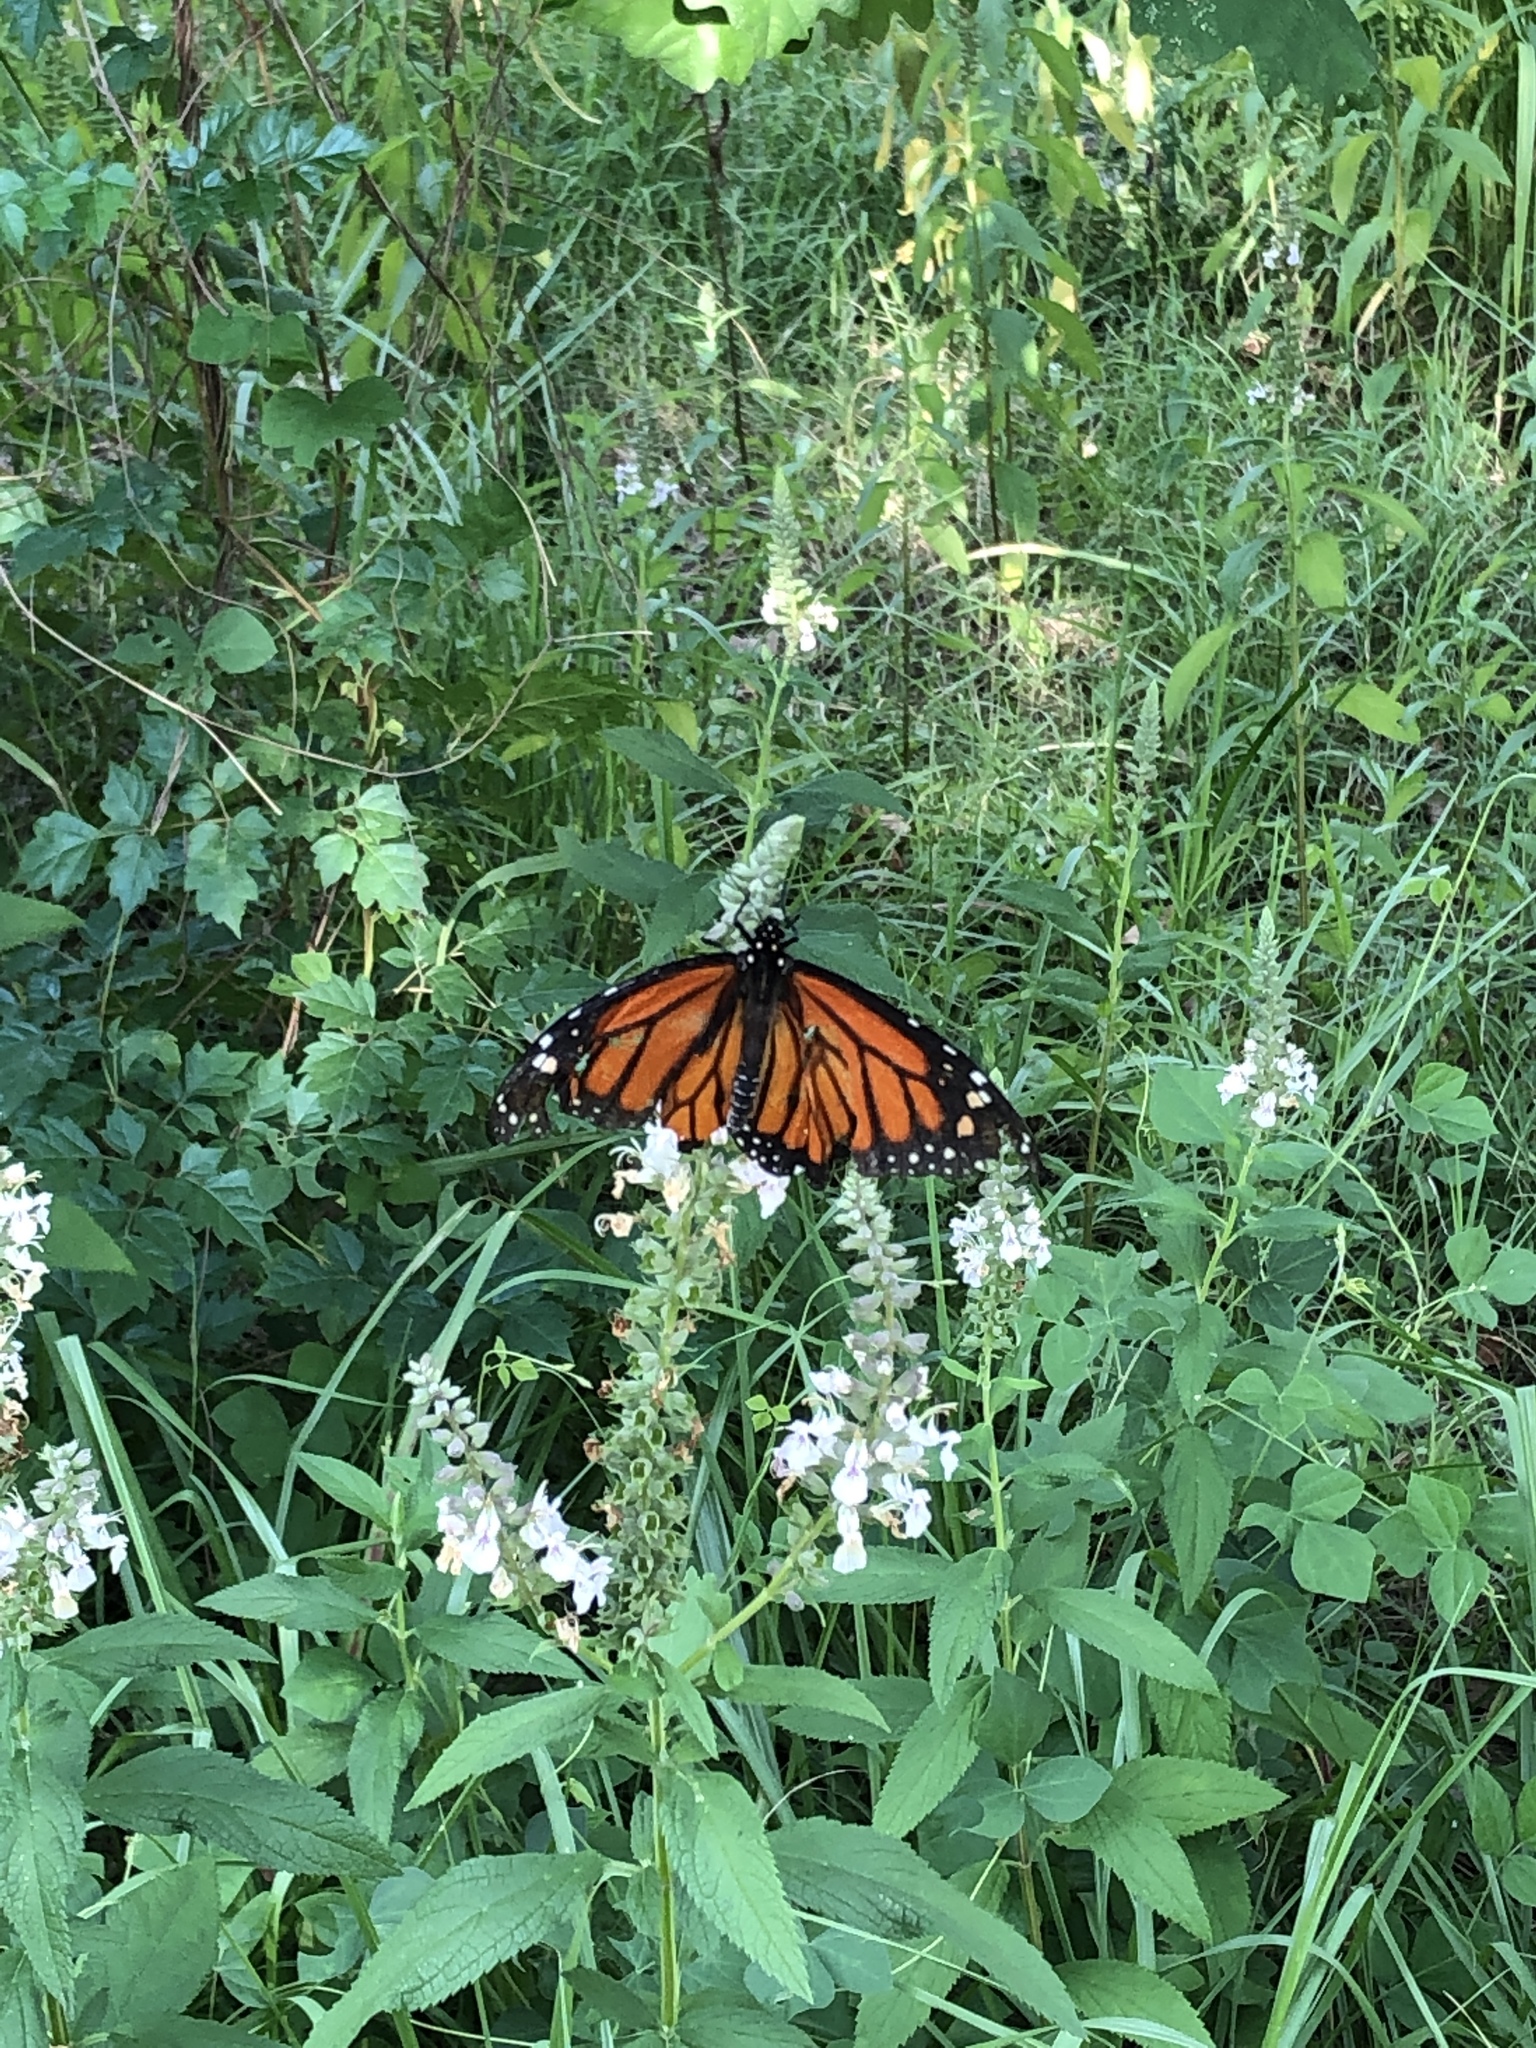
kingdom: Animalia
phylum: Arthropoda
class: Insecta
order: Lepidoptera
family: Nymphalidae
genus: Danaus
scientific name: Danaus plexippus
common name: Monarch
